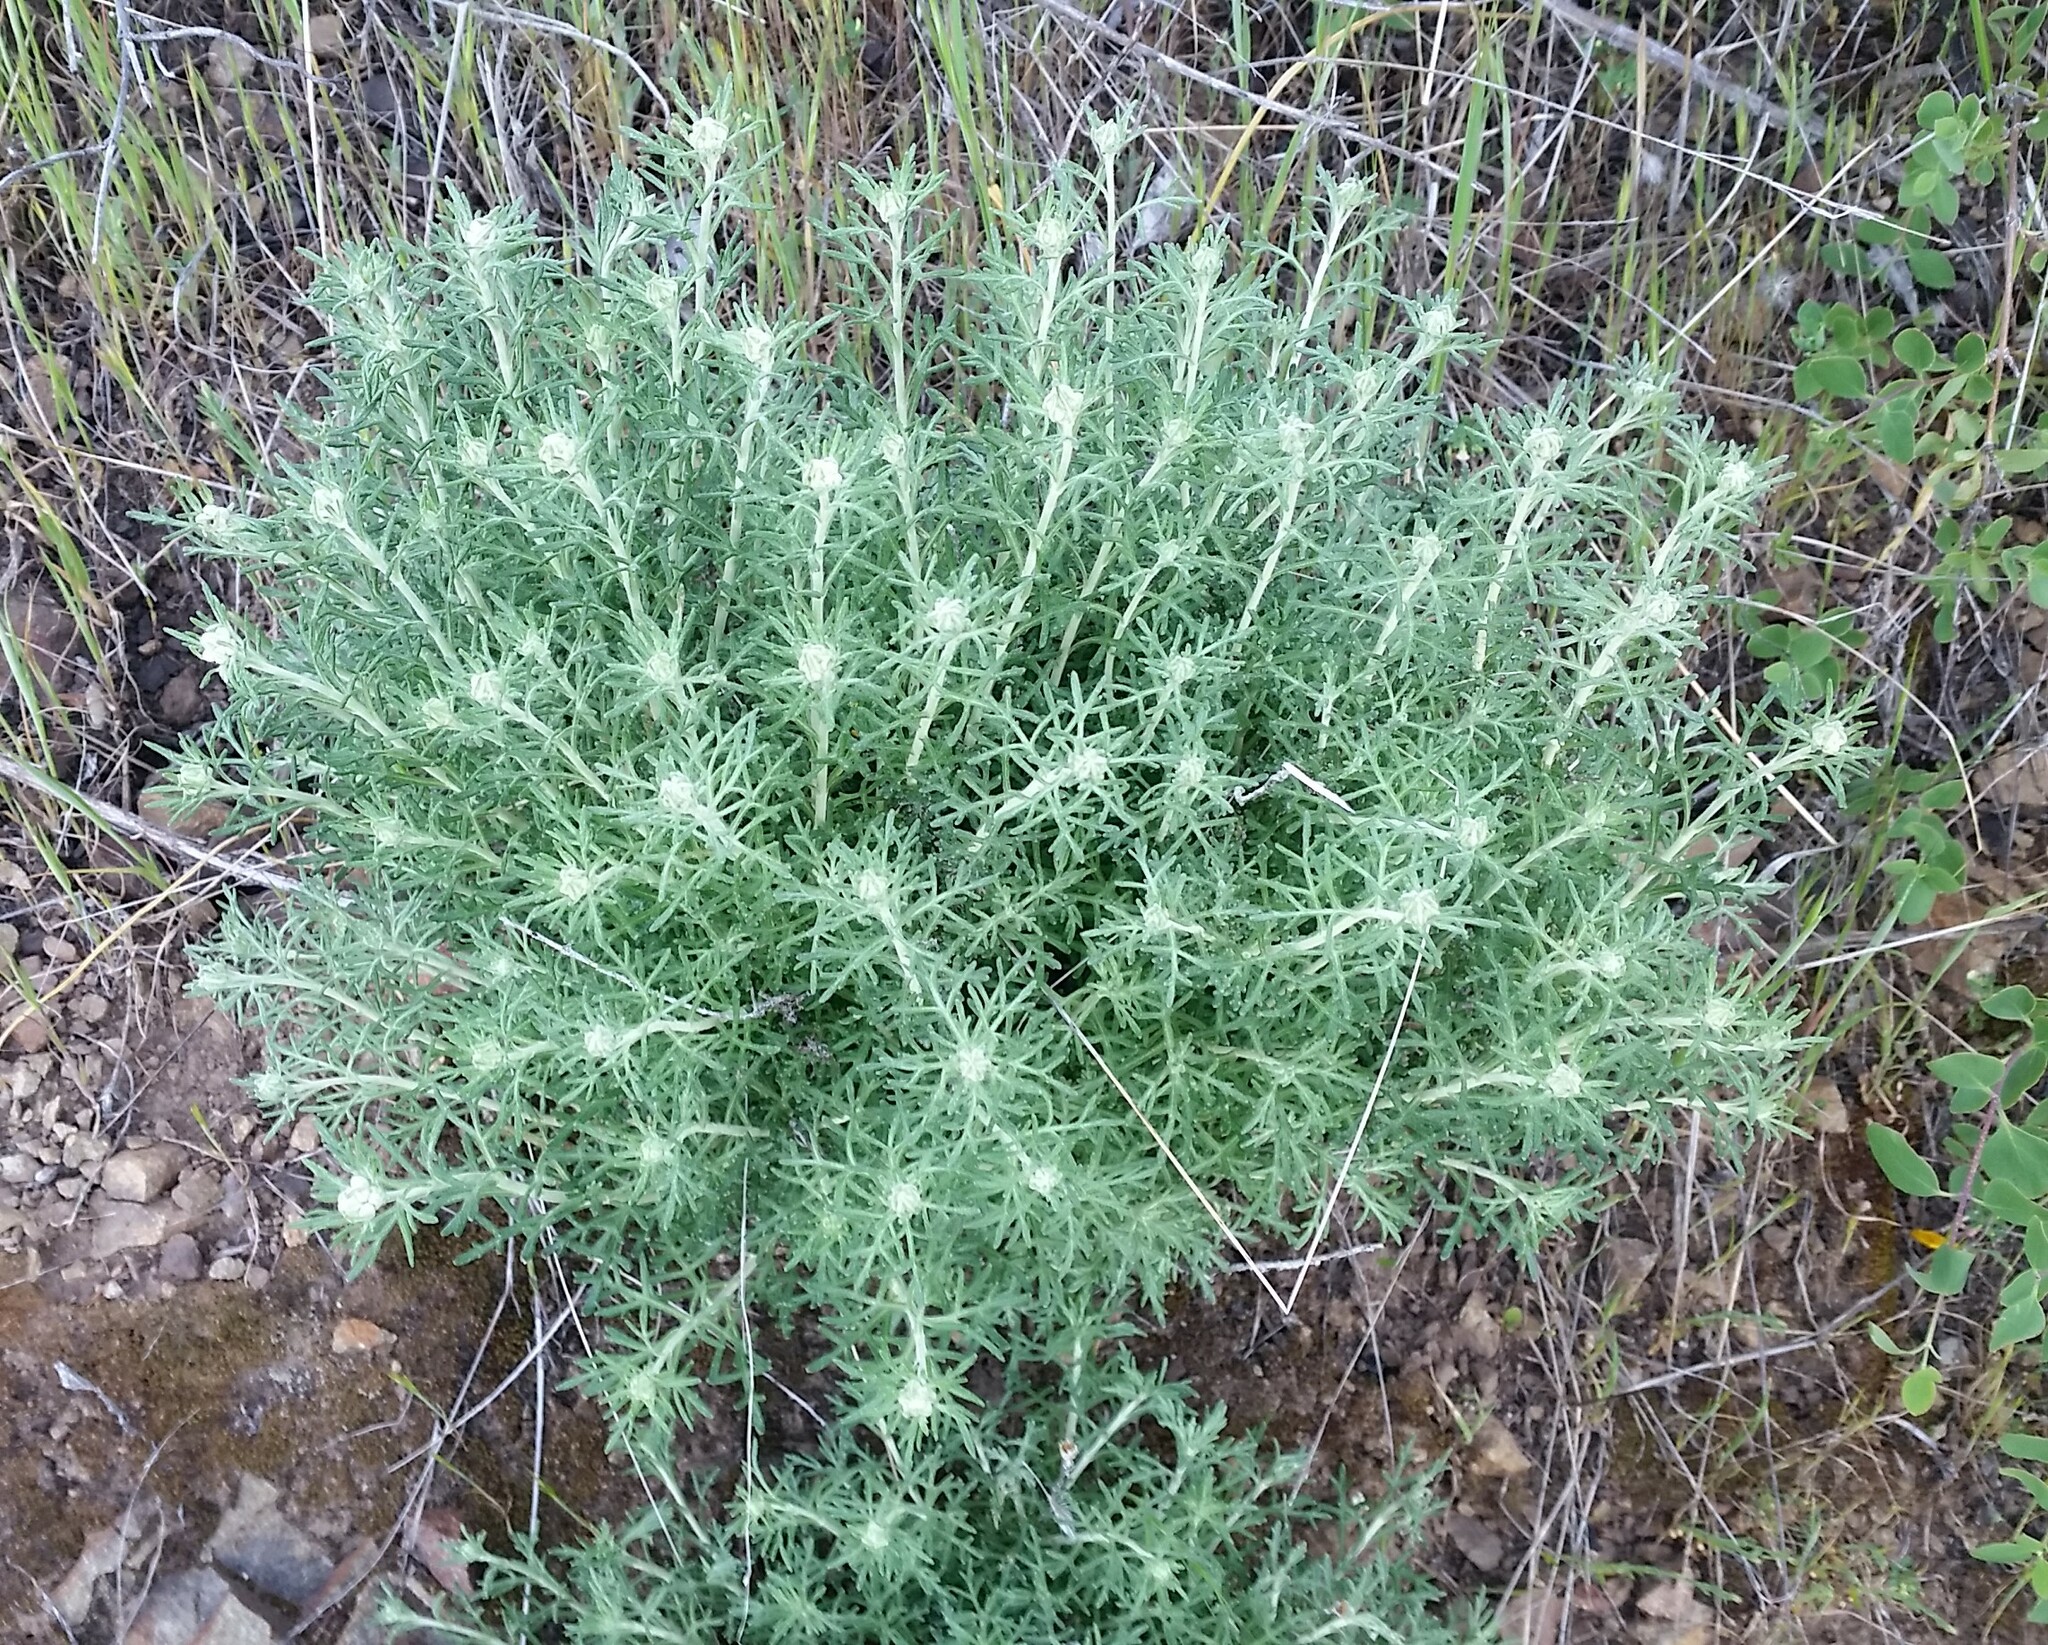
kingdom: Plantae
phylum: Tracheophyta
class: Magnoliopsida
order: Asterales
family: Asteraceae
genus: Eriophyllum
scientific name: Eriophyllum confertiflorum
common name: Golden-yarrow
